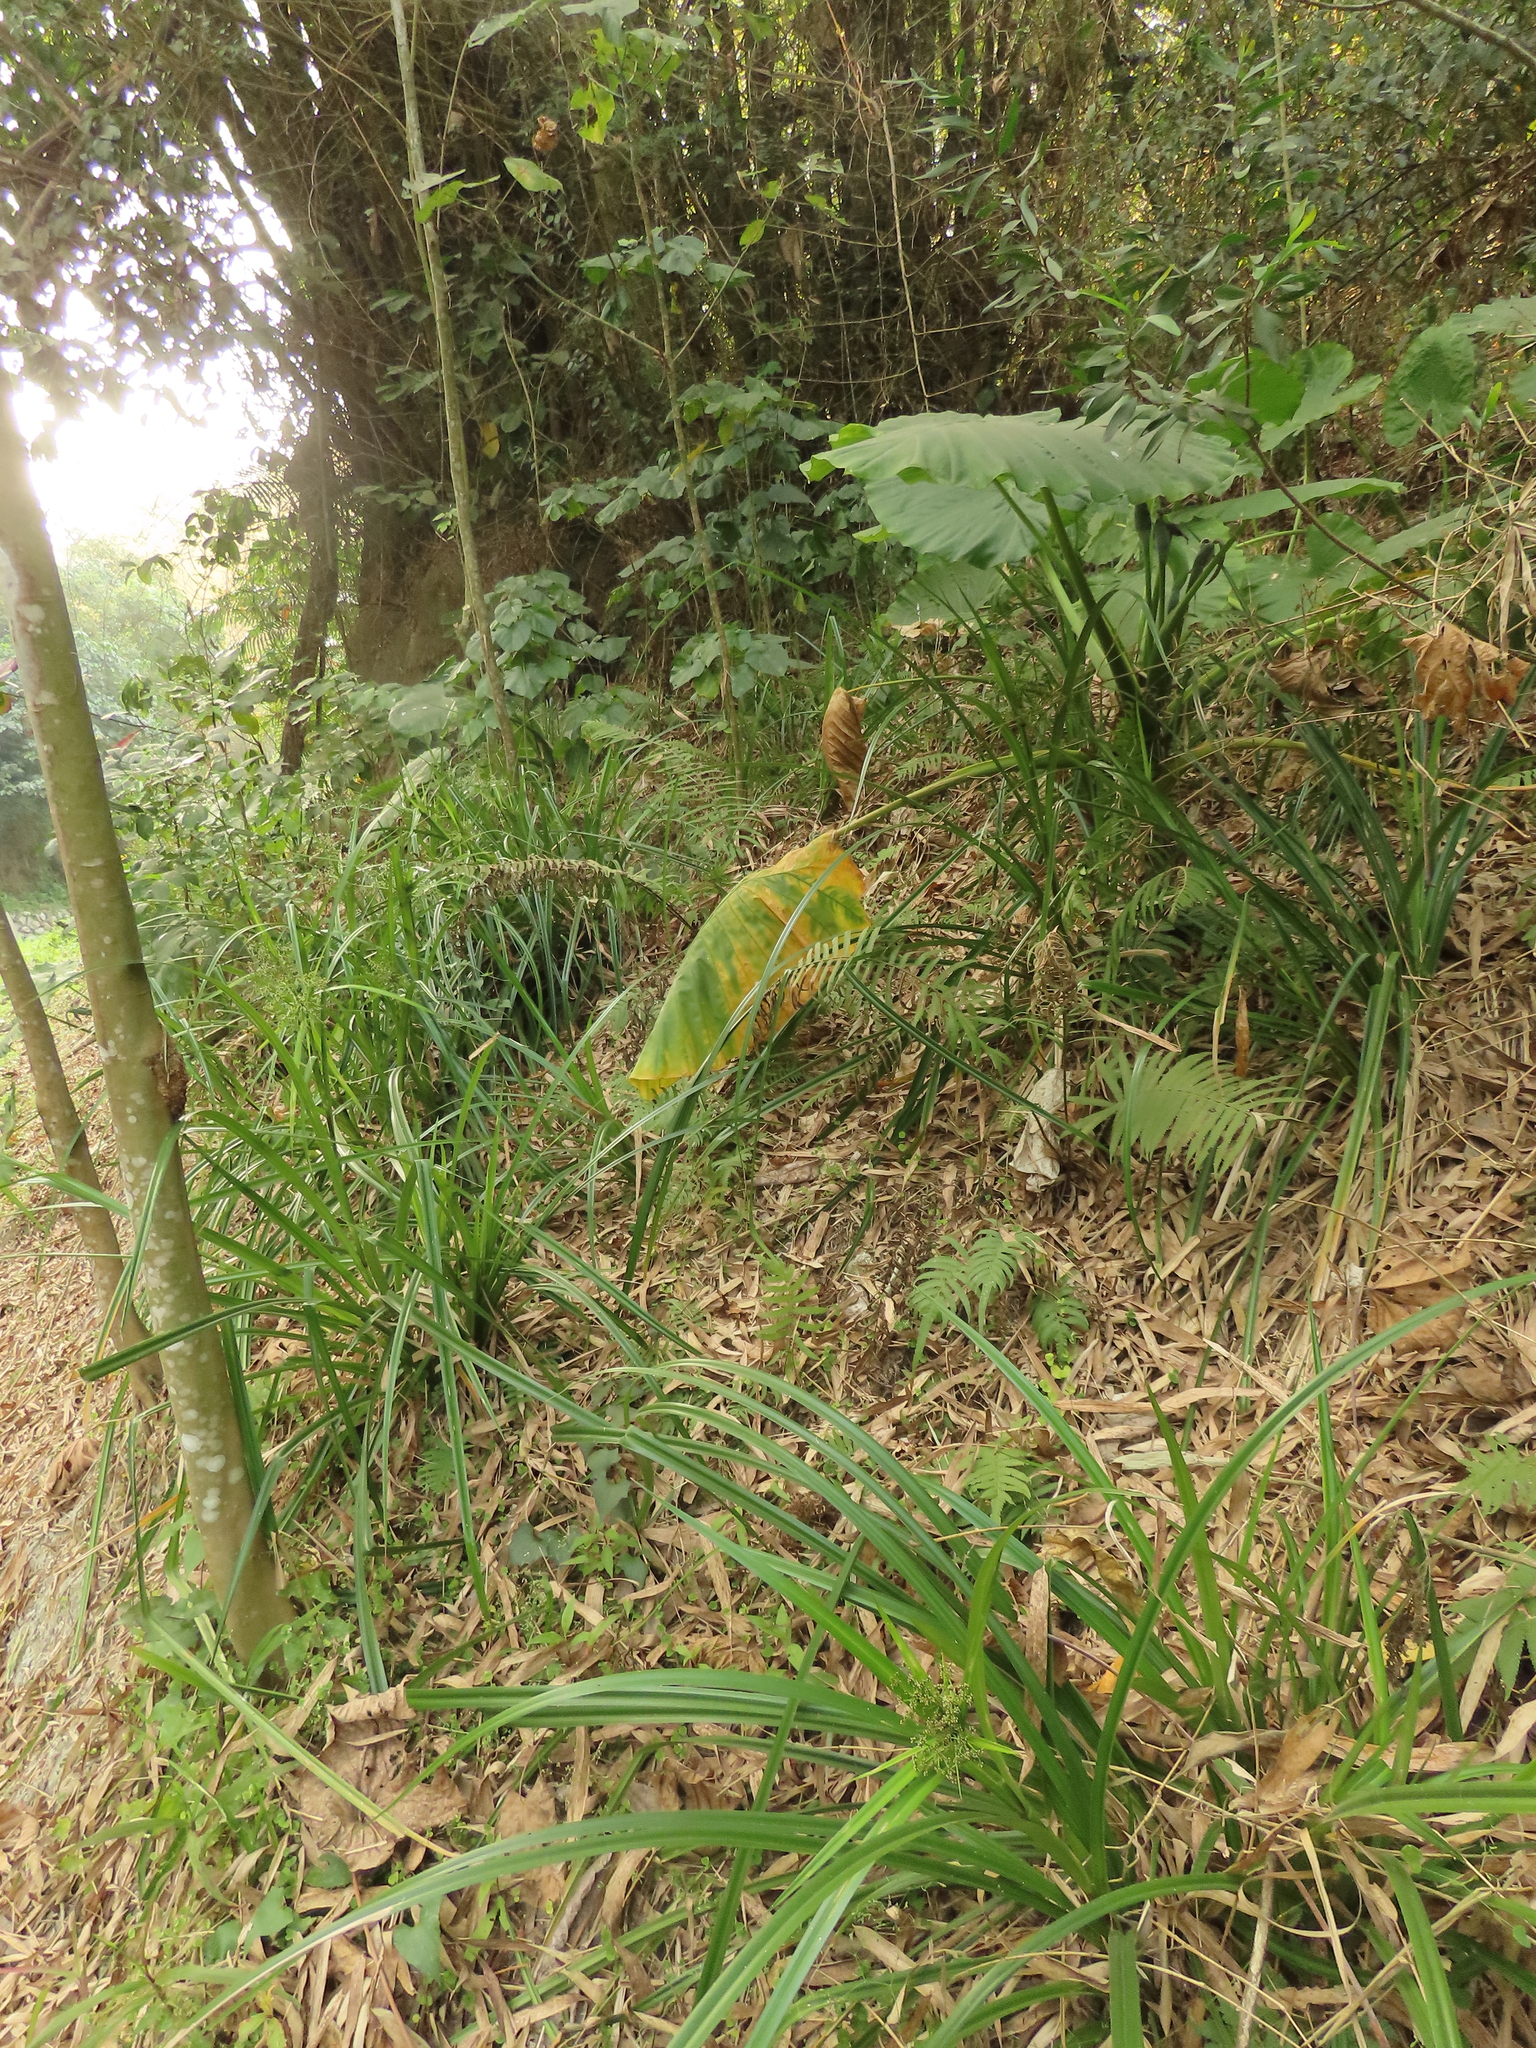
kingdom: Plantae
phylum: Tracheophyta
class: Liliopsida
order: Poales
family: Cyperaceae
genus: Scirpus
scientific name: Scirpus ternatanus
